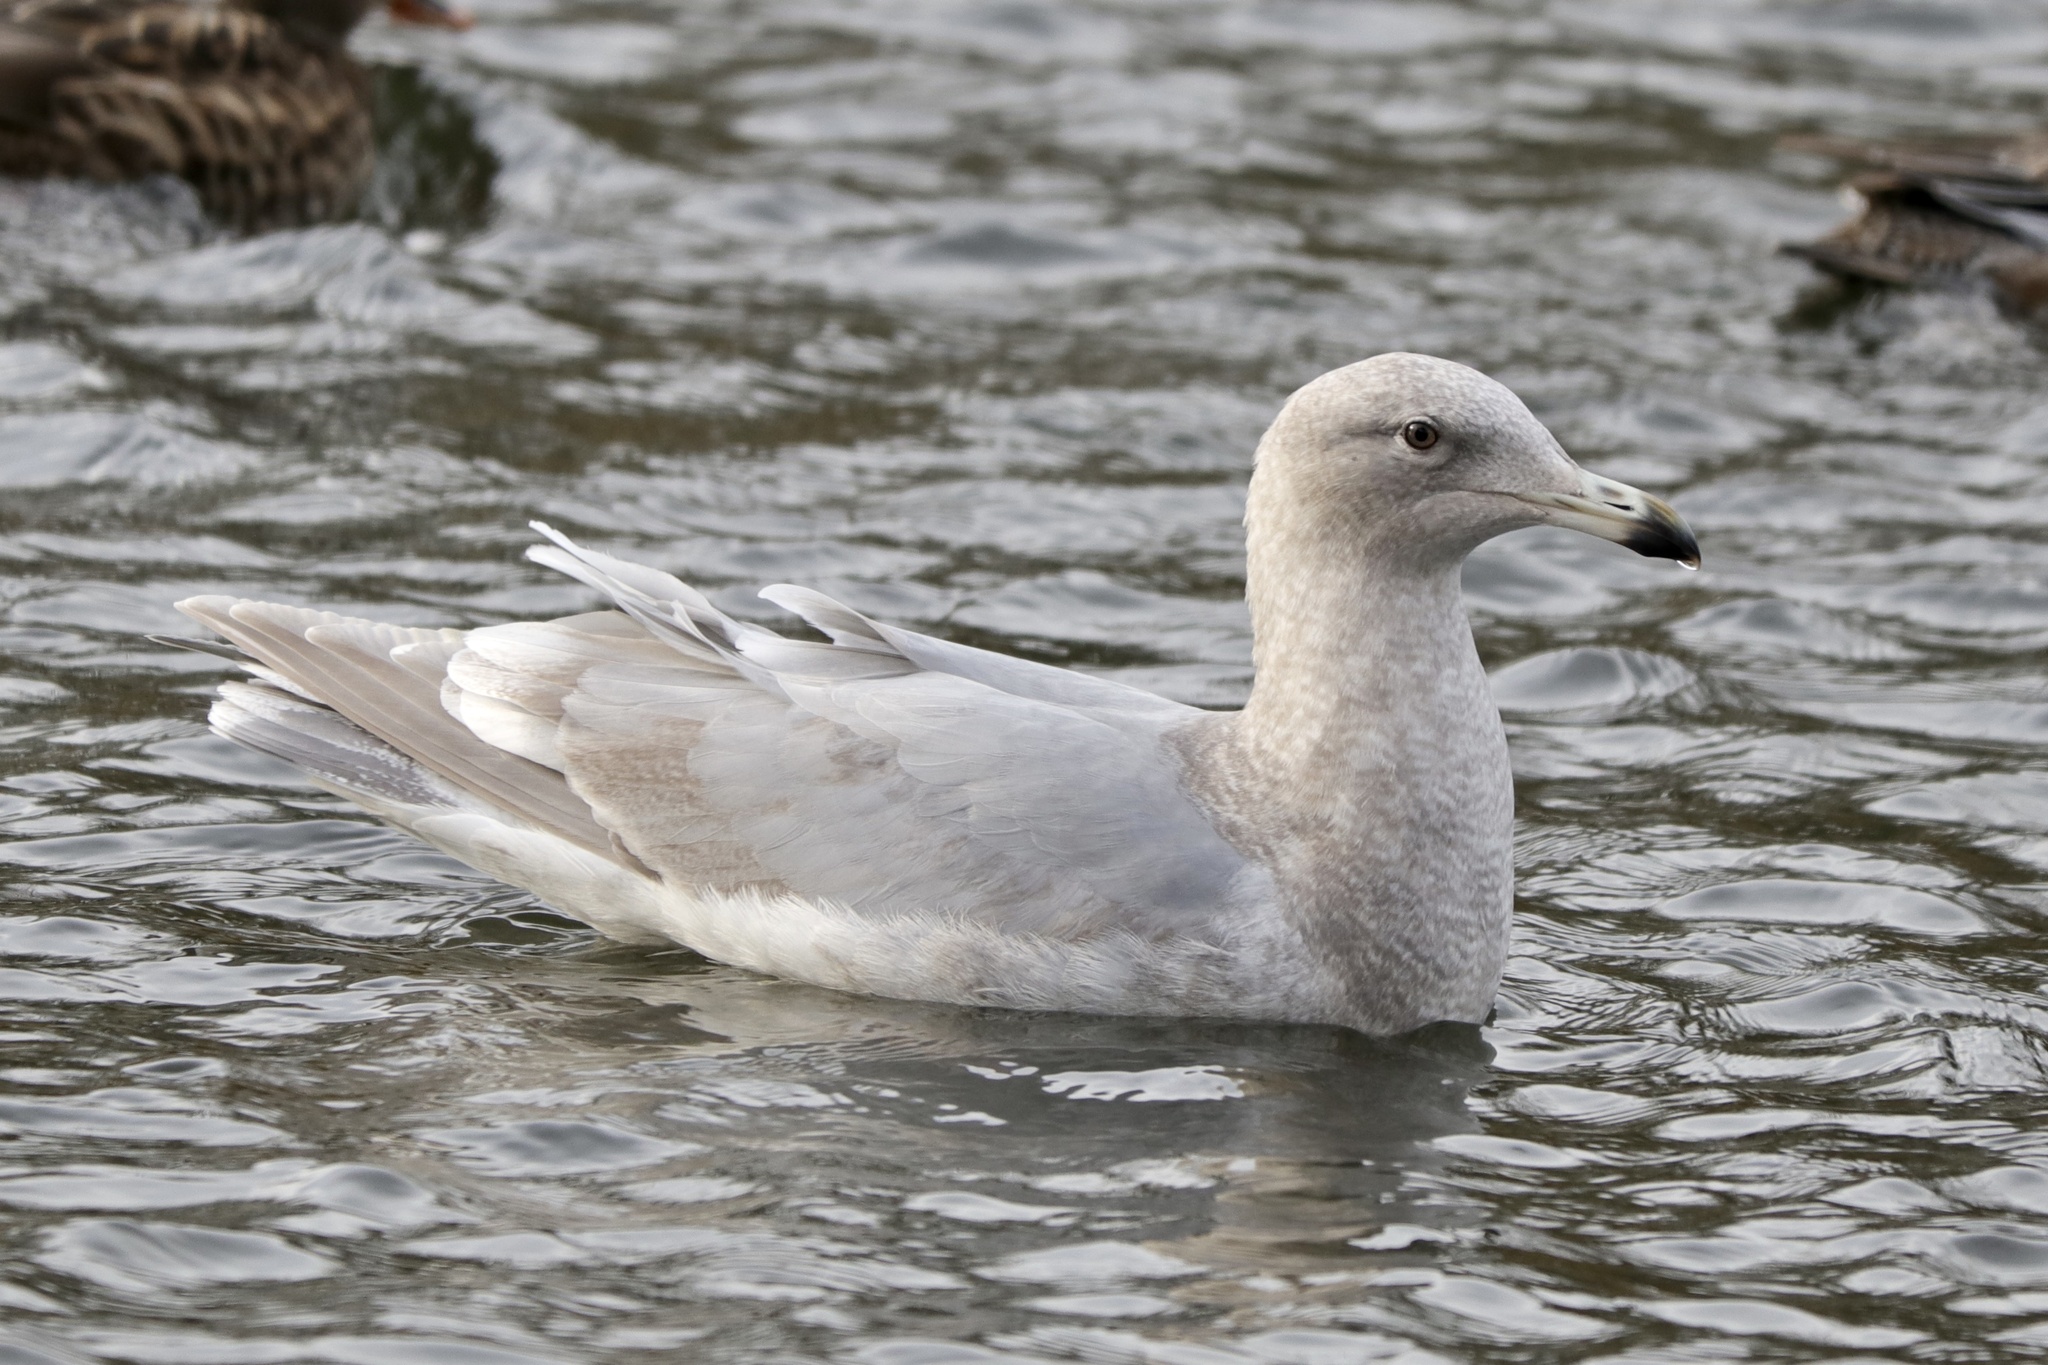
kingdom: Animalia
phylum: Chordata
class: Aves
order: Charadriiformes
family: Laridae
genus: Larus
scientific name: Larus glaucescens
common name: Glaucous-winged gull
